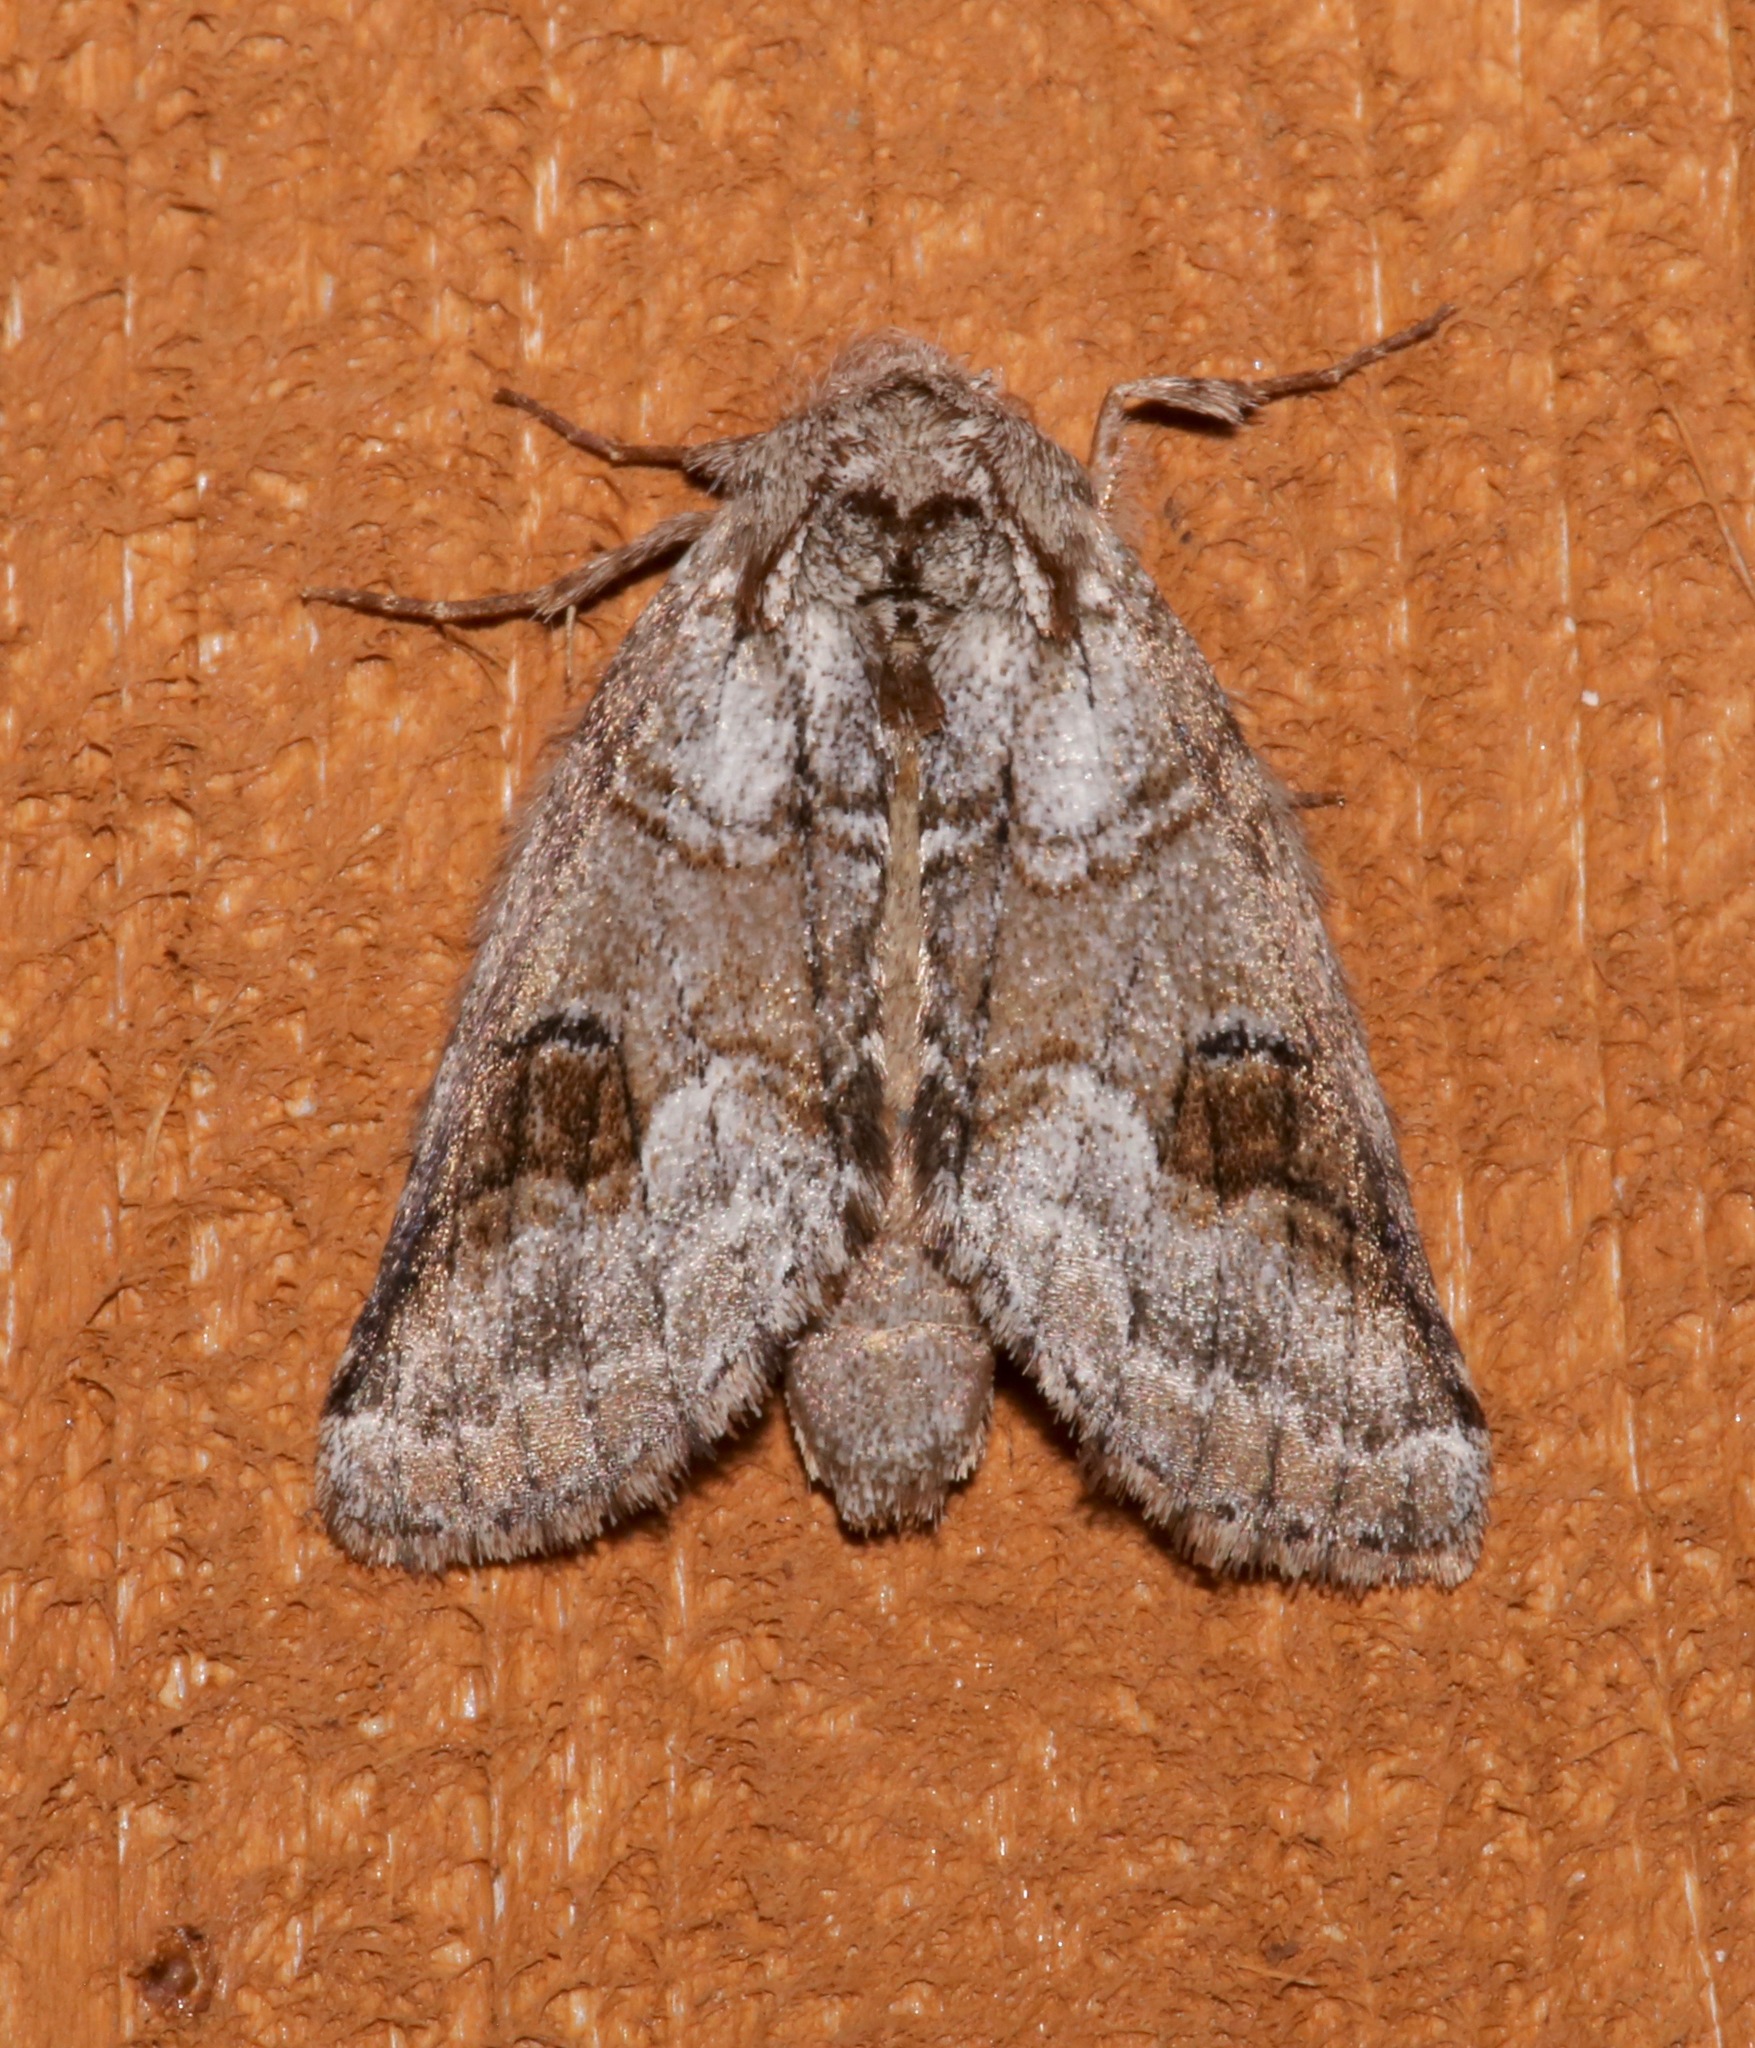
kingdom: Animalia
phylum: Arthropoda
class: Insecta
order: Lepidoptera
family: Notodontidae
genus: Lochmaeus
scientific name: Lochmaeus bilineata
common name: Double-lined prominent
